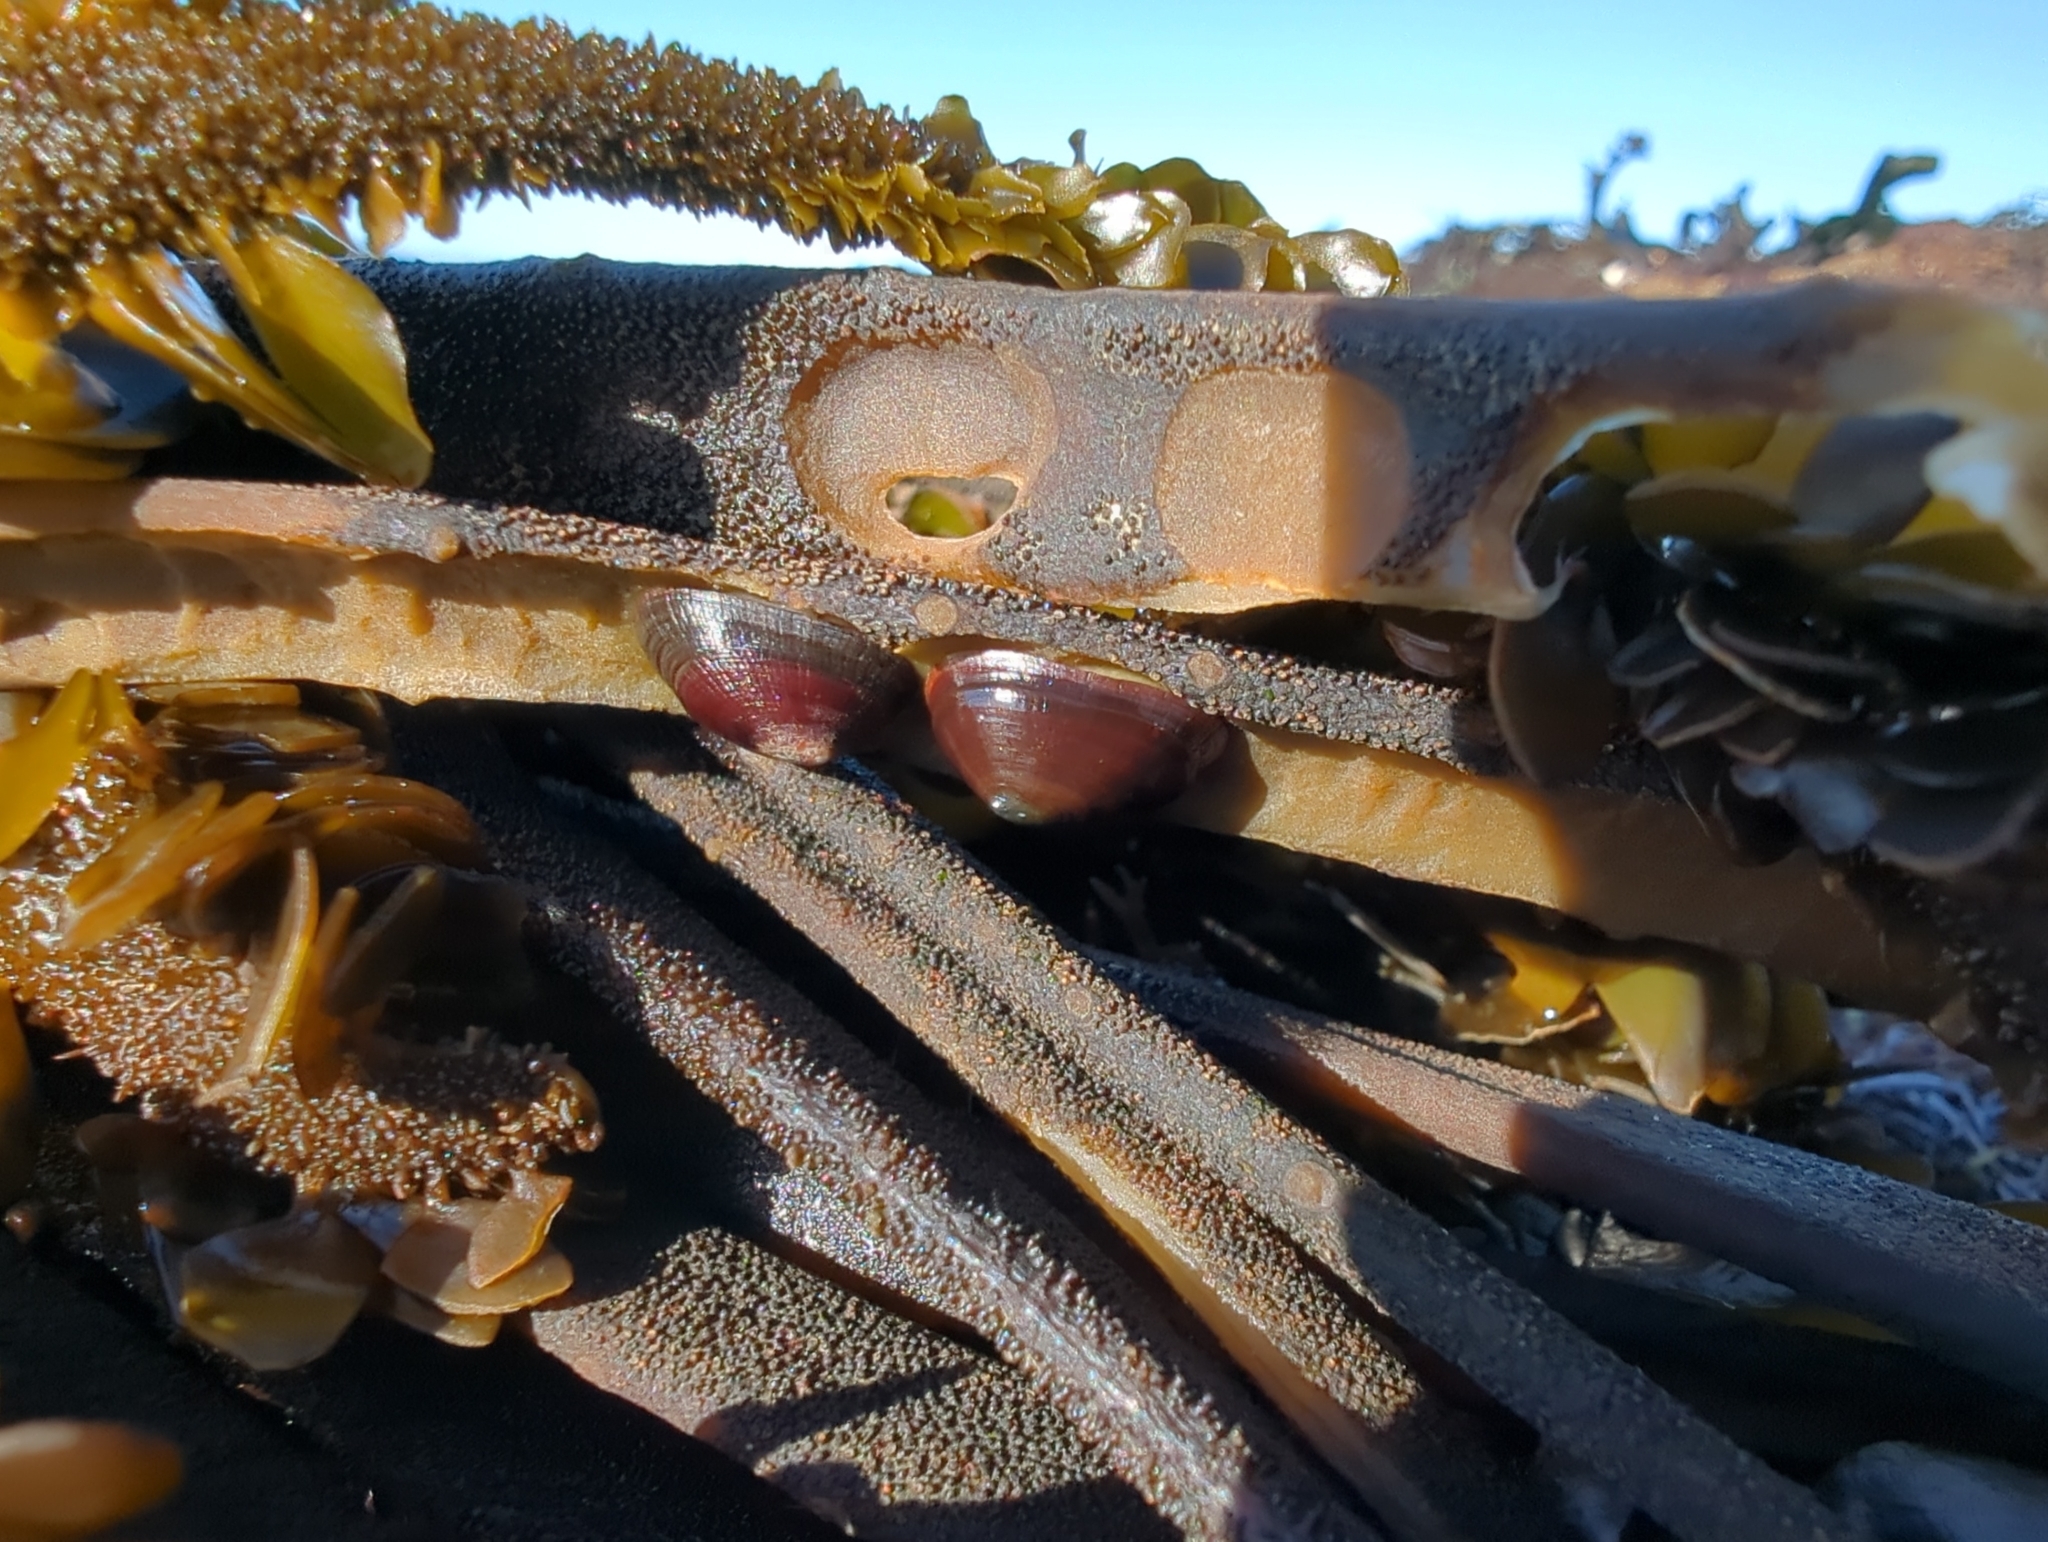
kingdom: Animalia
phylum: Mollusca
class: Gastropoda
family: Lottiidae
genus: Discurria
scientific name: Discurria insessa
